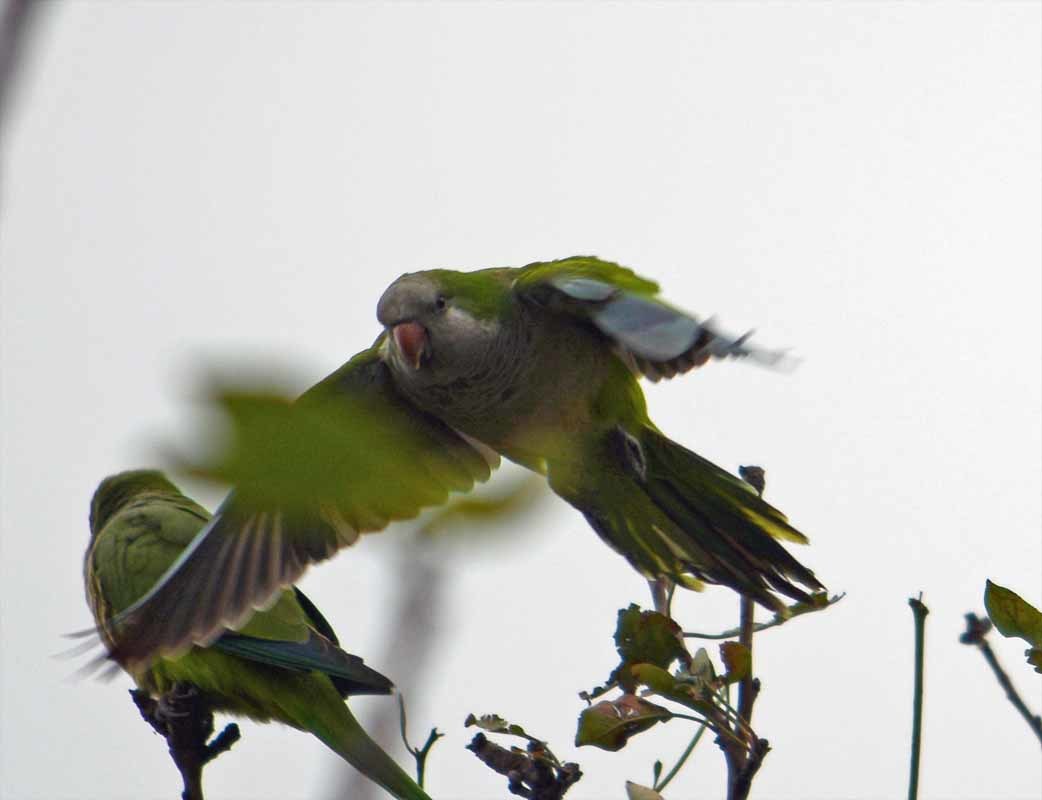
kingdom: Animalia
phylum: Chordata
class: Aves
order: Psittaciformes
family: Psittacidae
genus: Myiopsitta
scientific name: Myiopsitta monachus
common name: Monk parakeet
